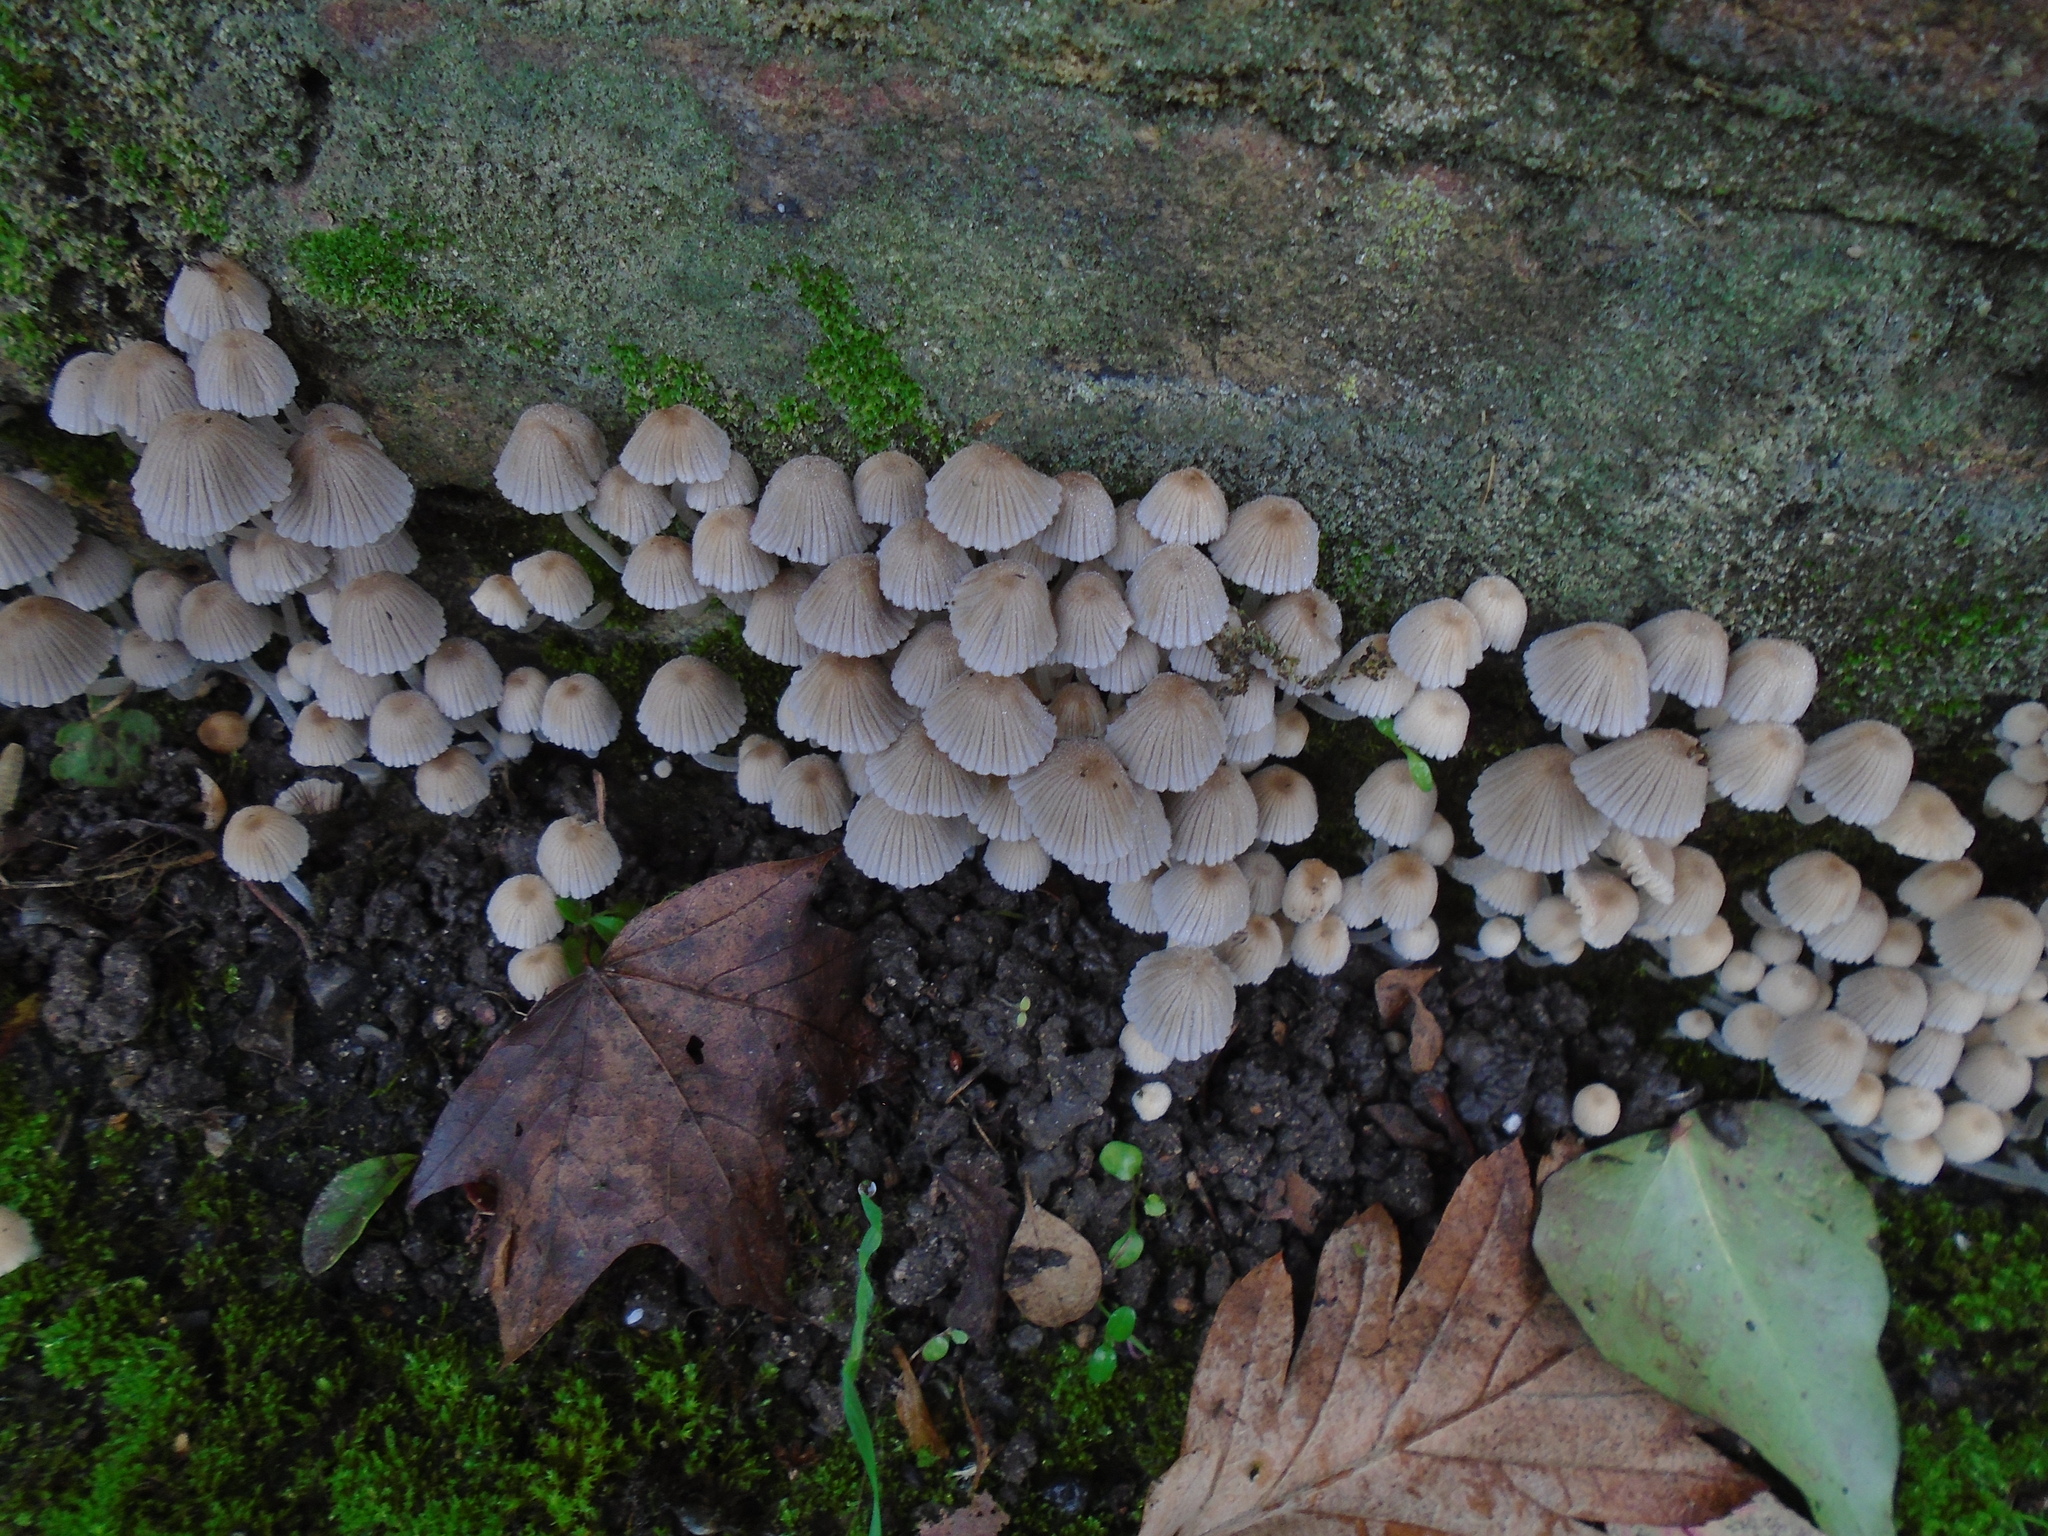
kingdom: Fungi
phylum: Basidiomycota
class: Agaricomycetes
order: Agaricales
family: Psathyrellaceae
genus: Coprinellus
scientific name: Coprinellus disseminatus
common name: Fairies' bonnets
